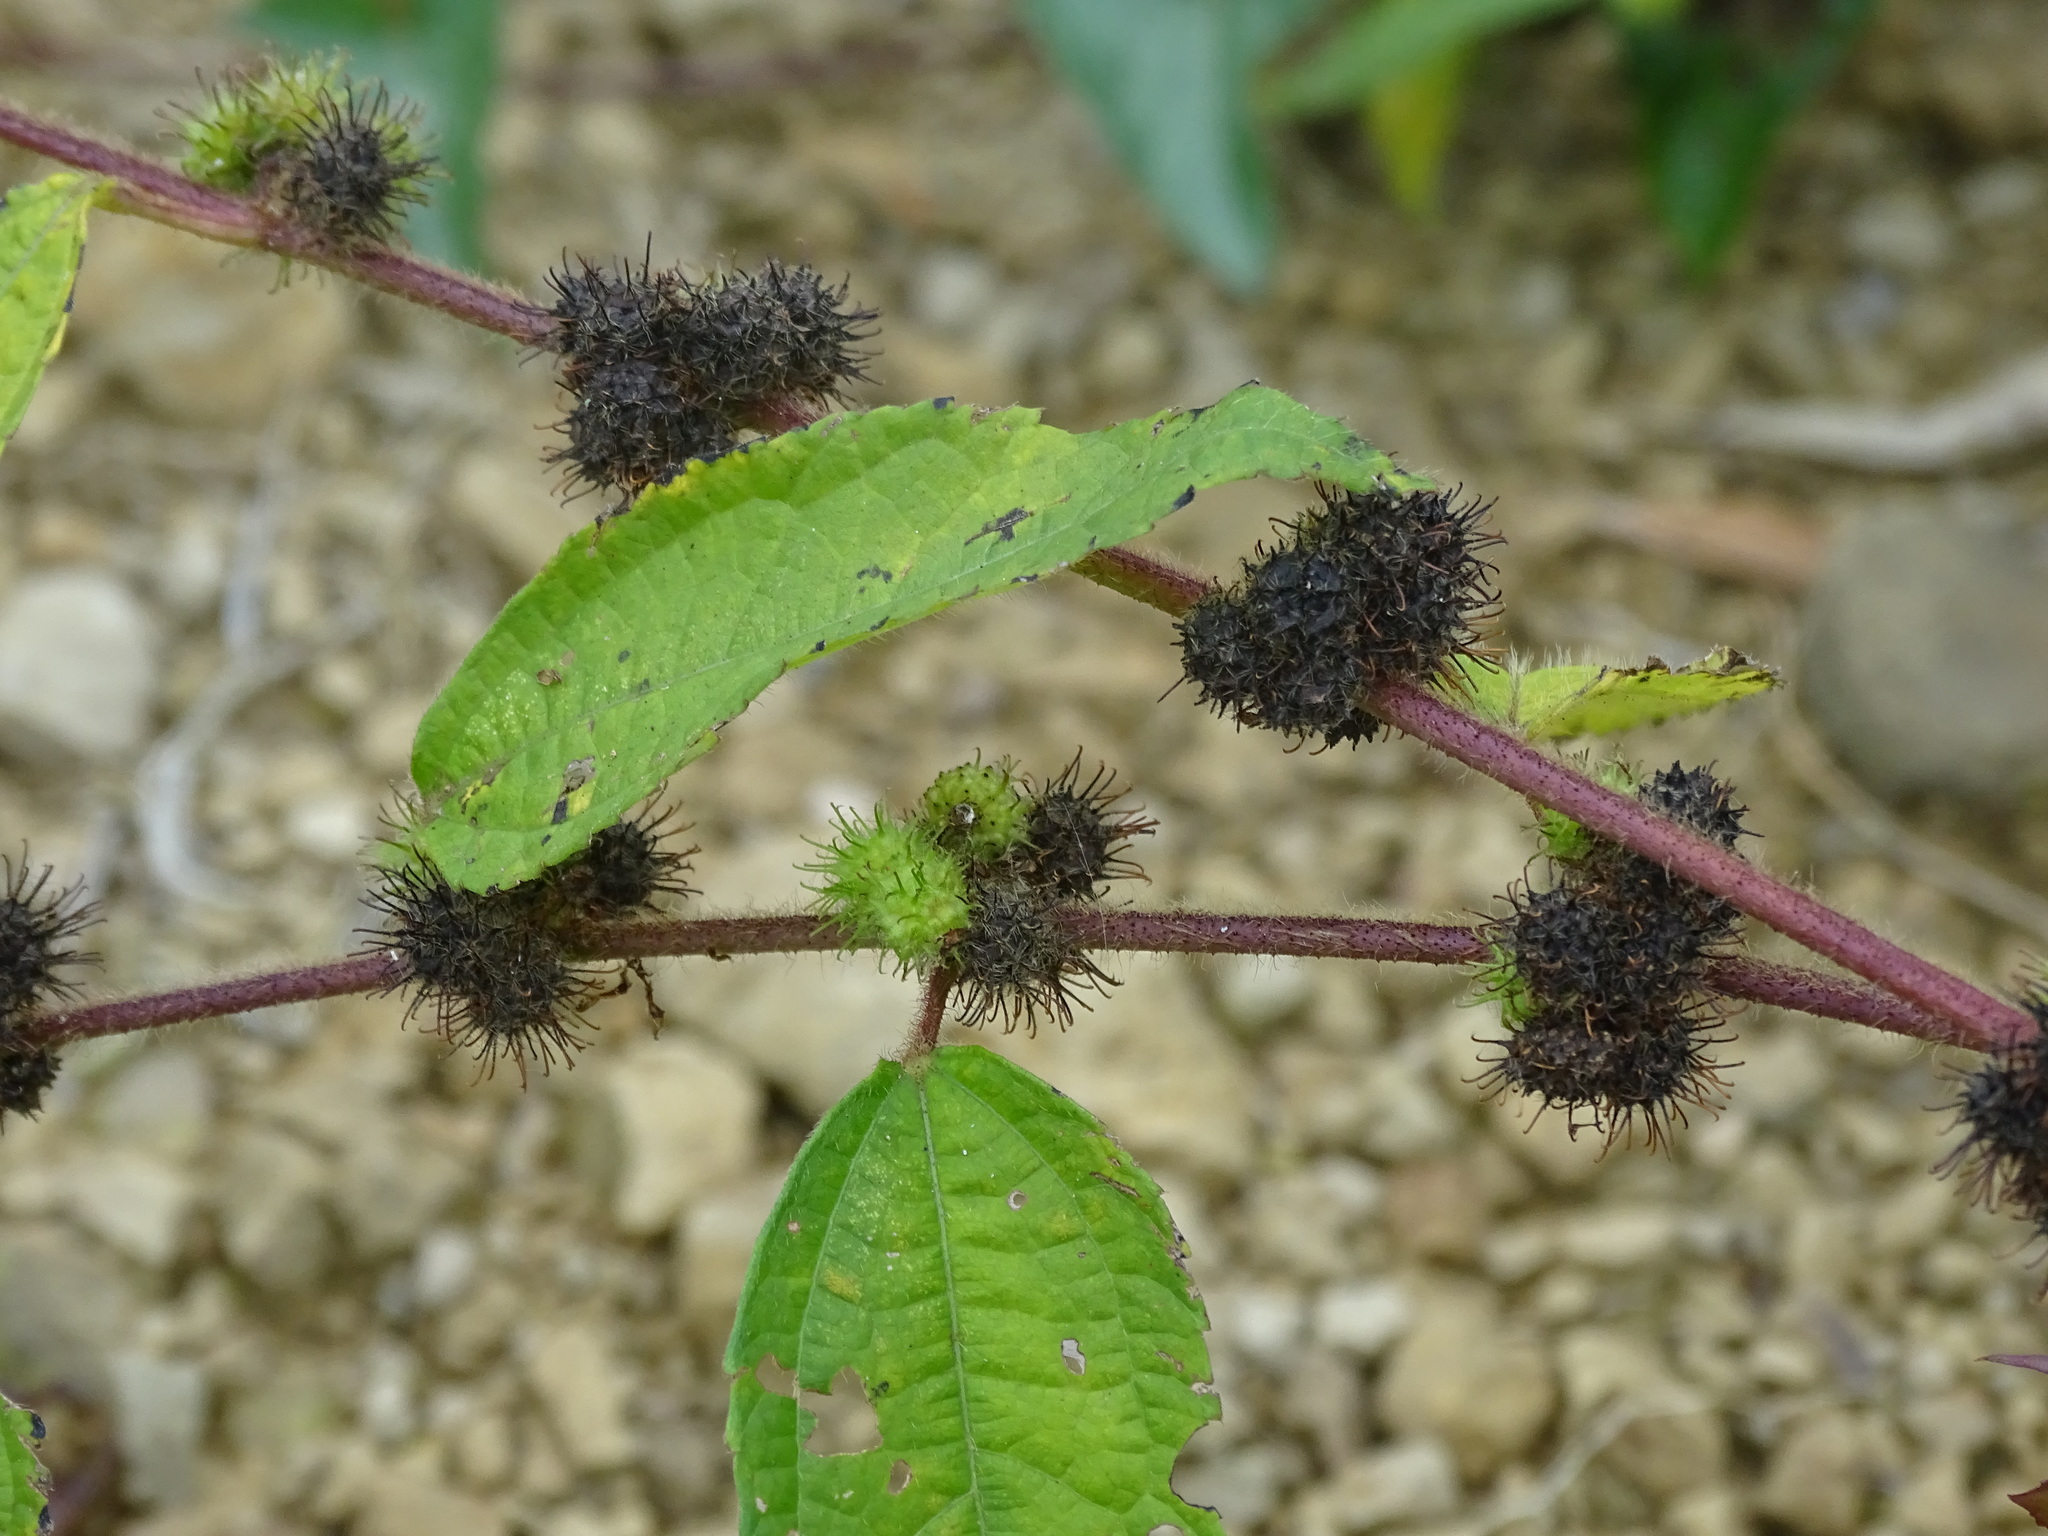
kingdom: Plantae
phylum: Tracheophyta
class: Magnoliopsida
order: Malvales
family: Malvaceae
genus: Triumfetta
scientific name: Triumfetta pilosa
